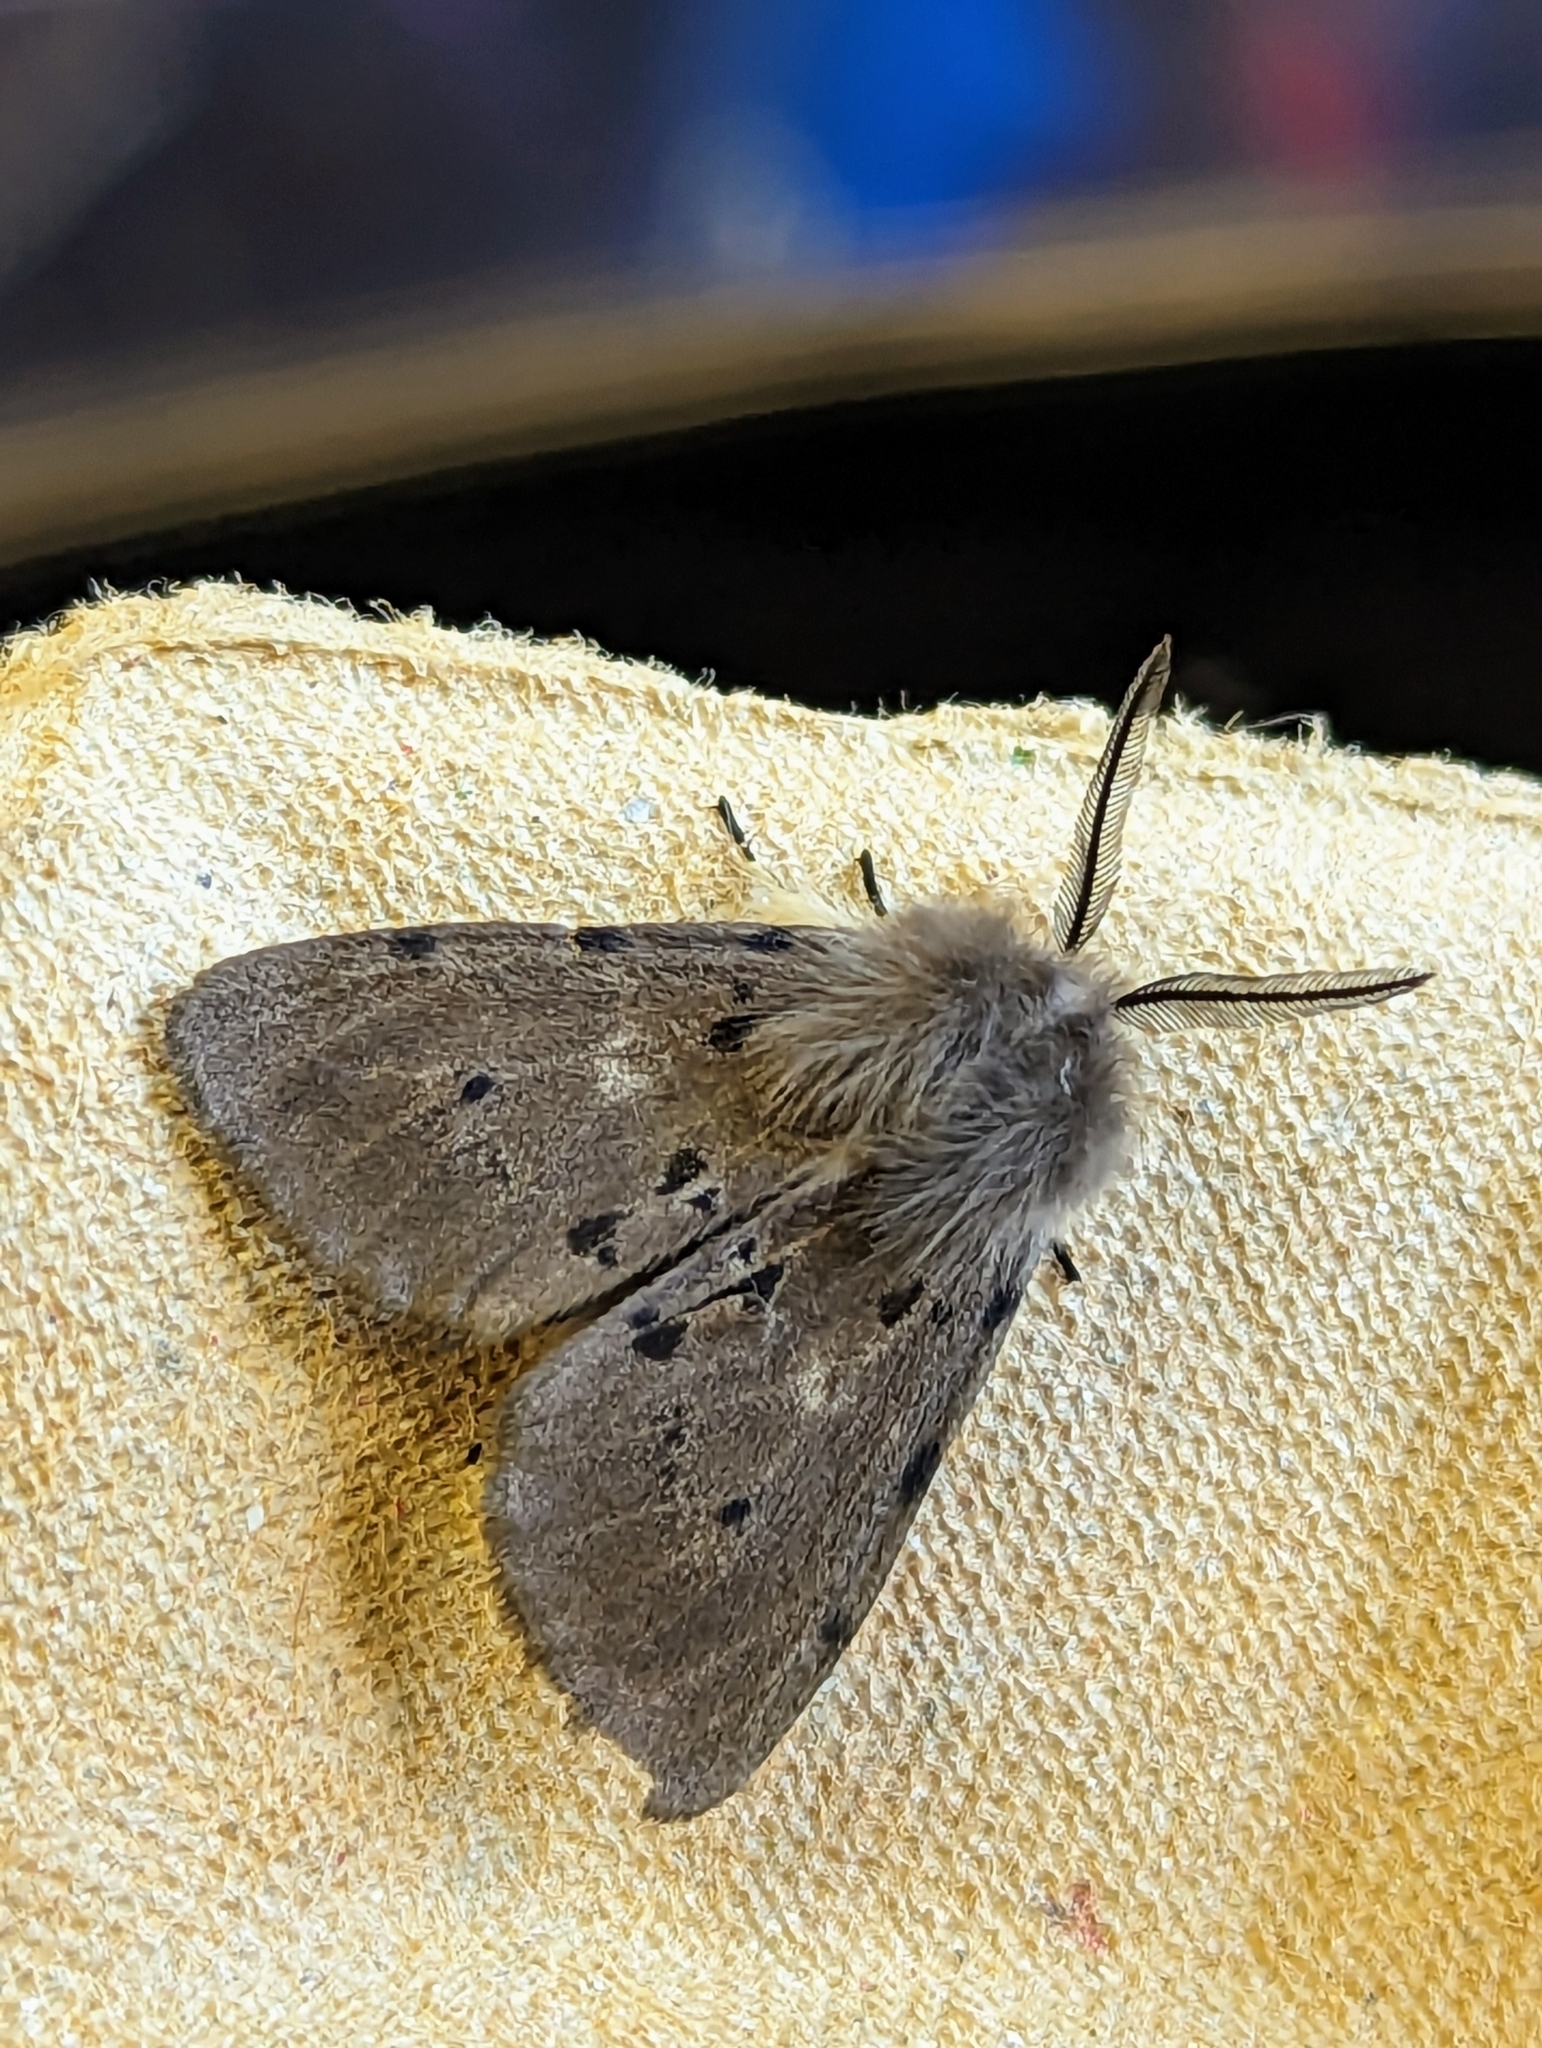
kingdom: Animalia
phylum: Arthropoda
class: Insecta
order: Lepidoptera
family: Erebidae
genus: Diaphora
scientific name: Diaphora mendica
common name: Muslin moth
